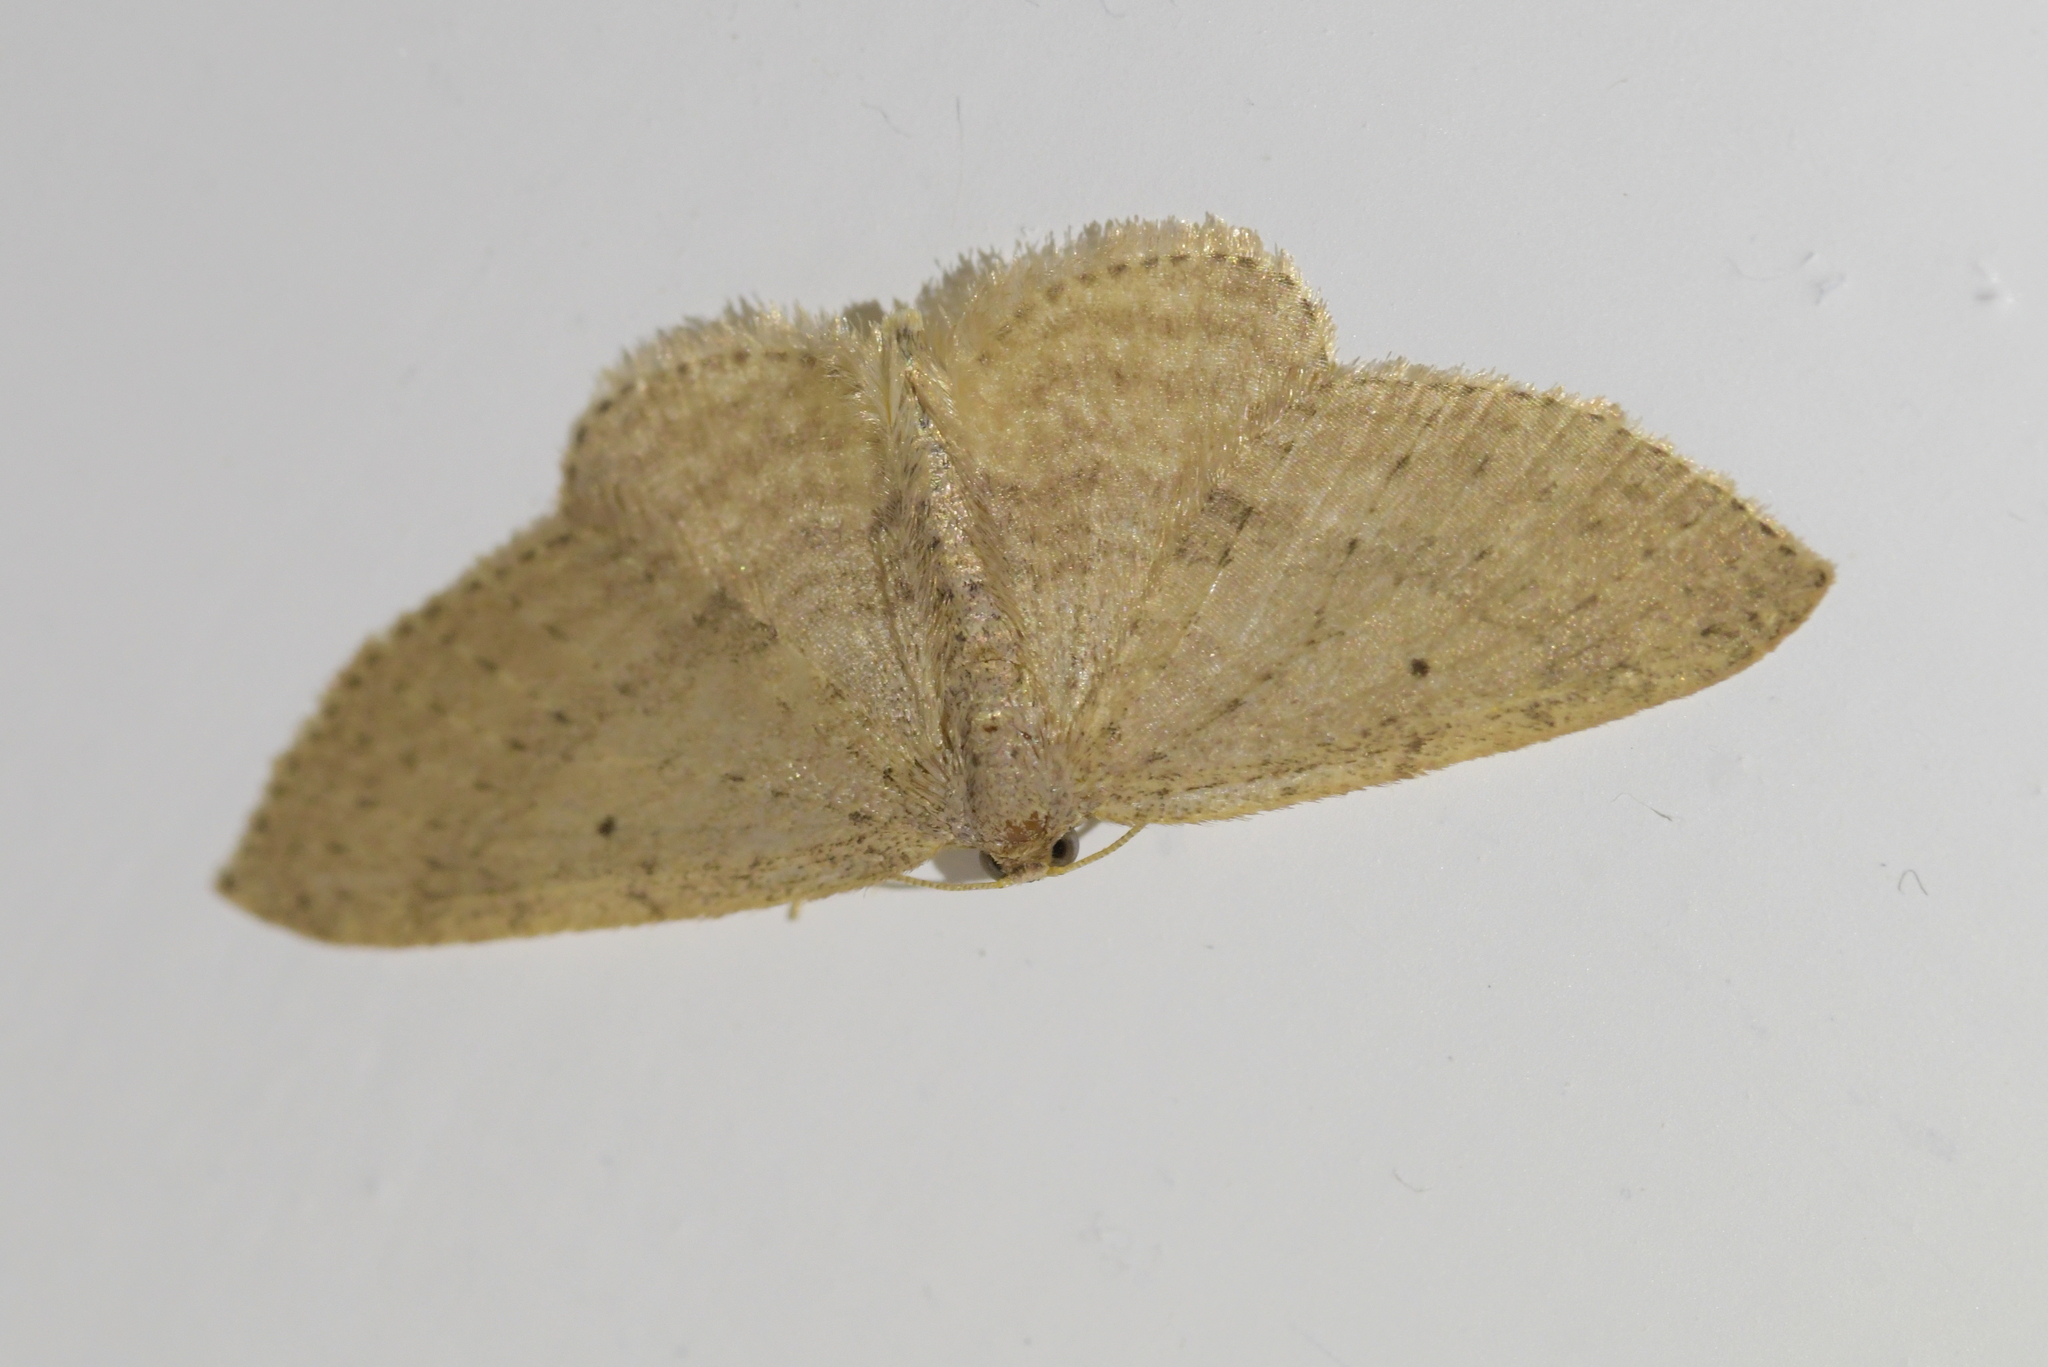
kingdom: Animalia
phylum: Arthropoda
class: Insecta
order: Lepidoptera
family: Geometridae
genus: Poecilasthena
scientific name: Poecilasthena schistaria
